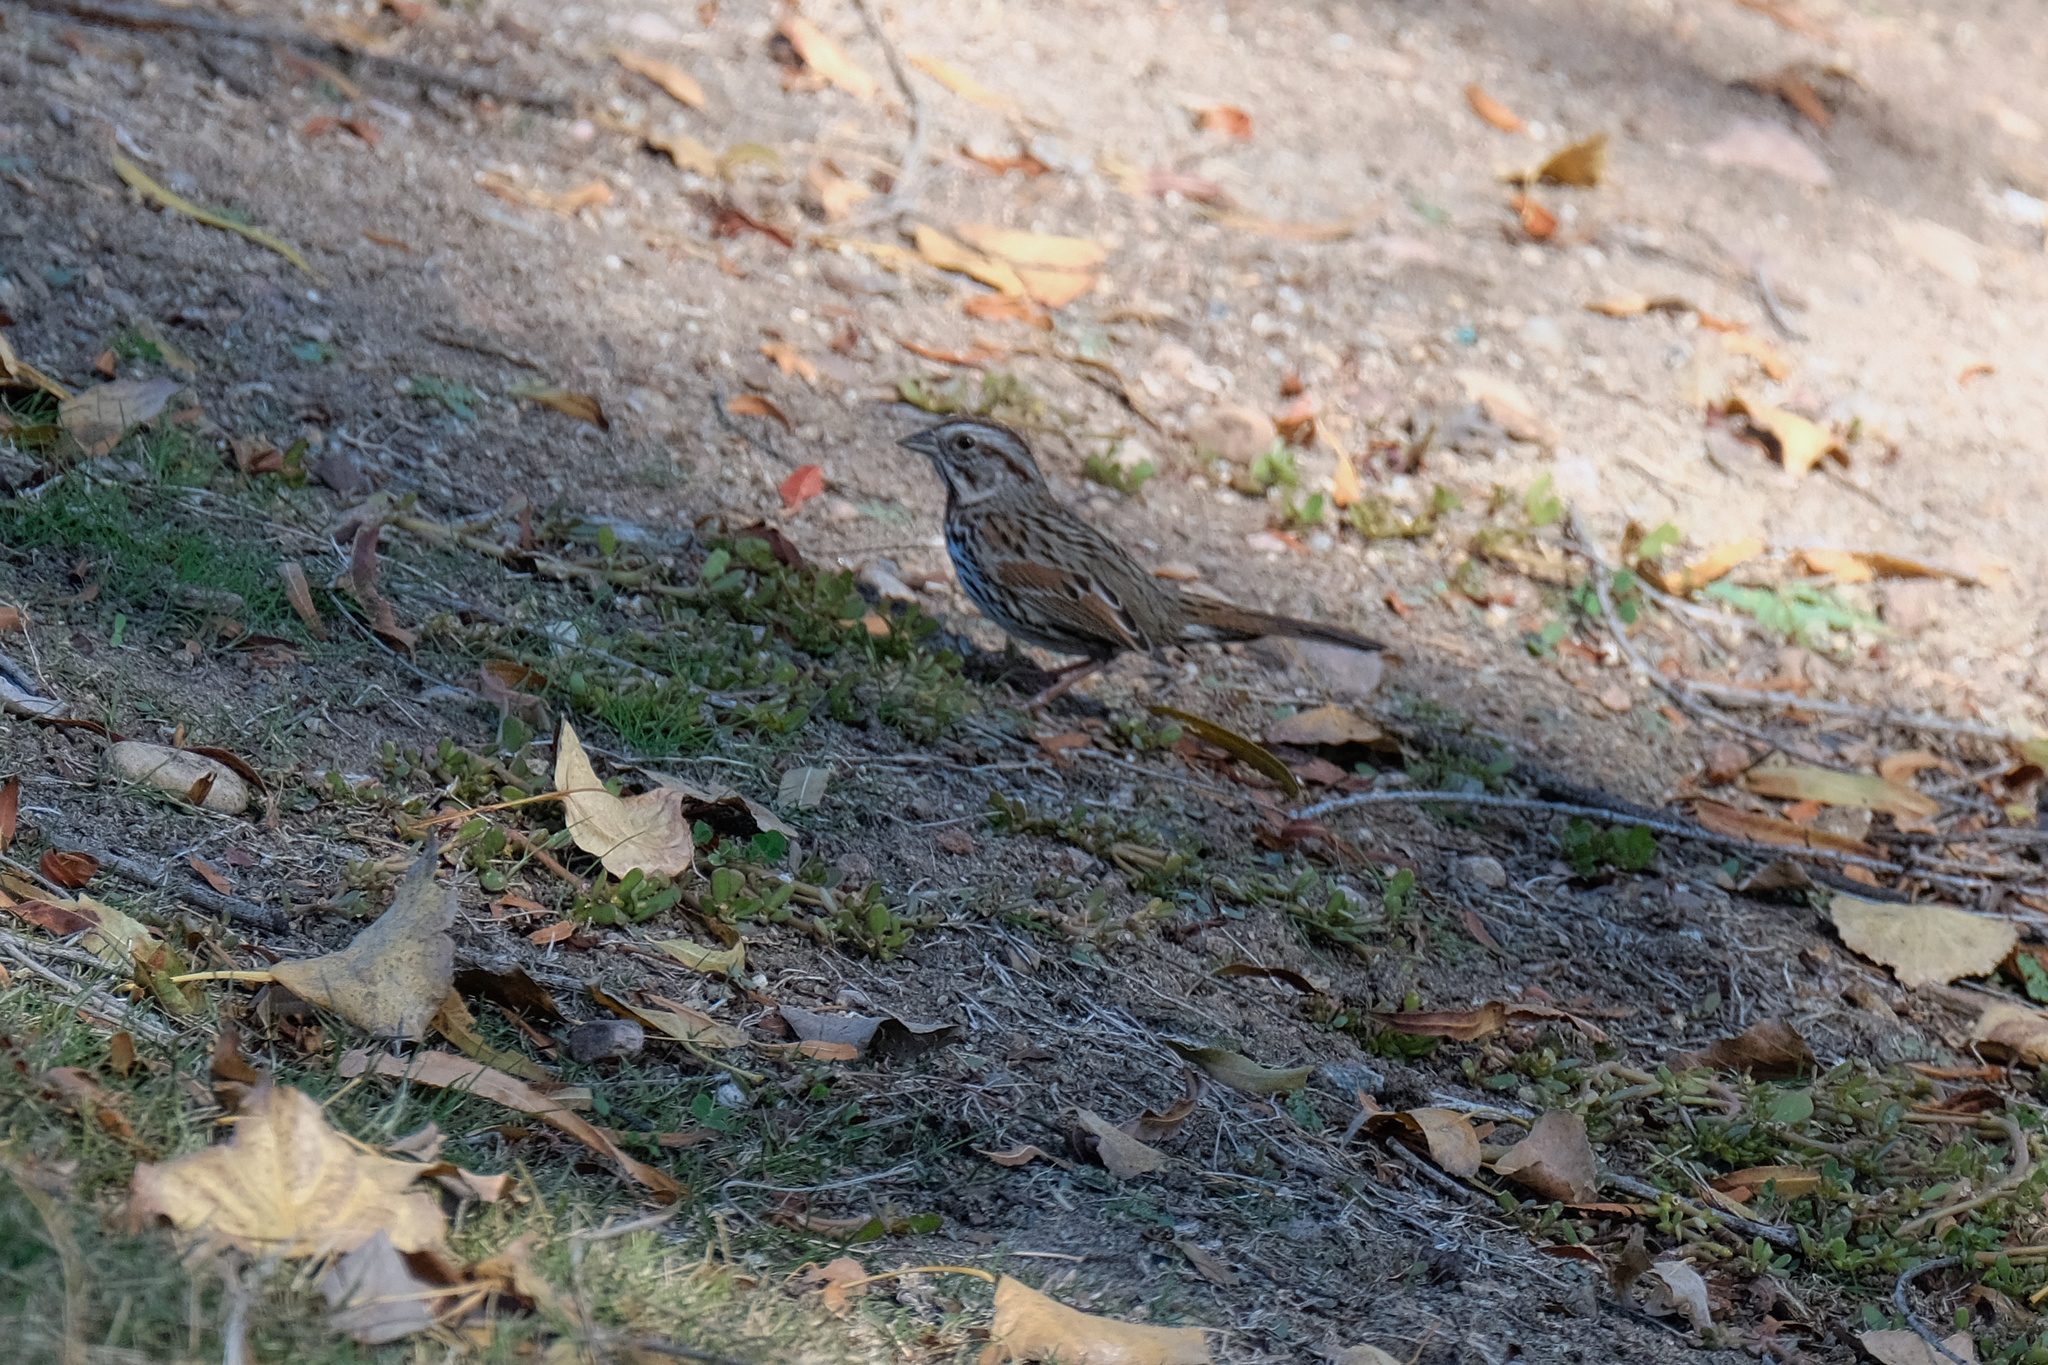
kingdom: Animalia
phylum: Chordata
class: Aves
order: Passeriformes
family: Passerellidae
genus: Melospiza
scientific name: Melospiza melodia
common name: Song sparrow
